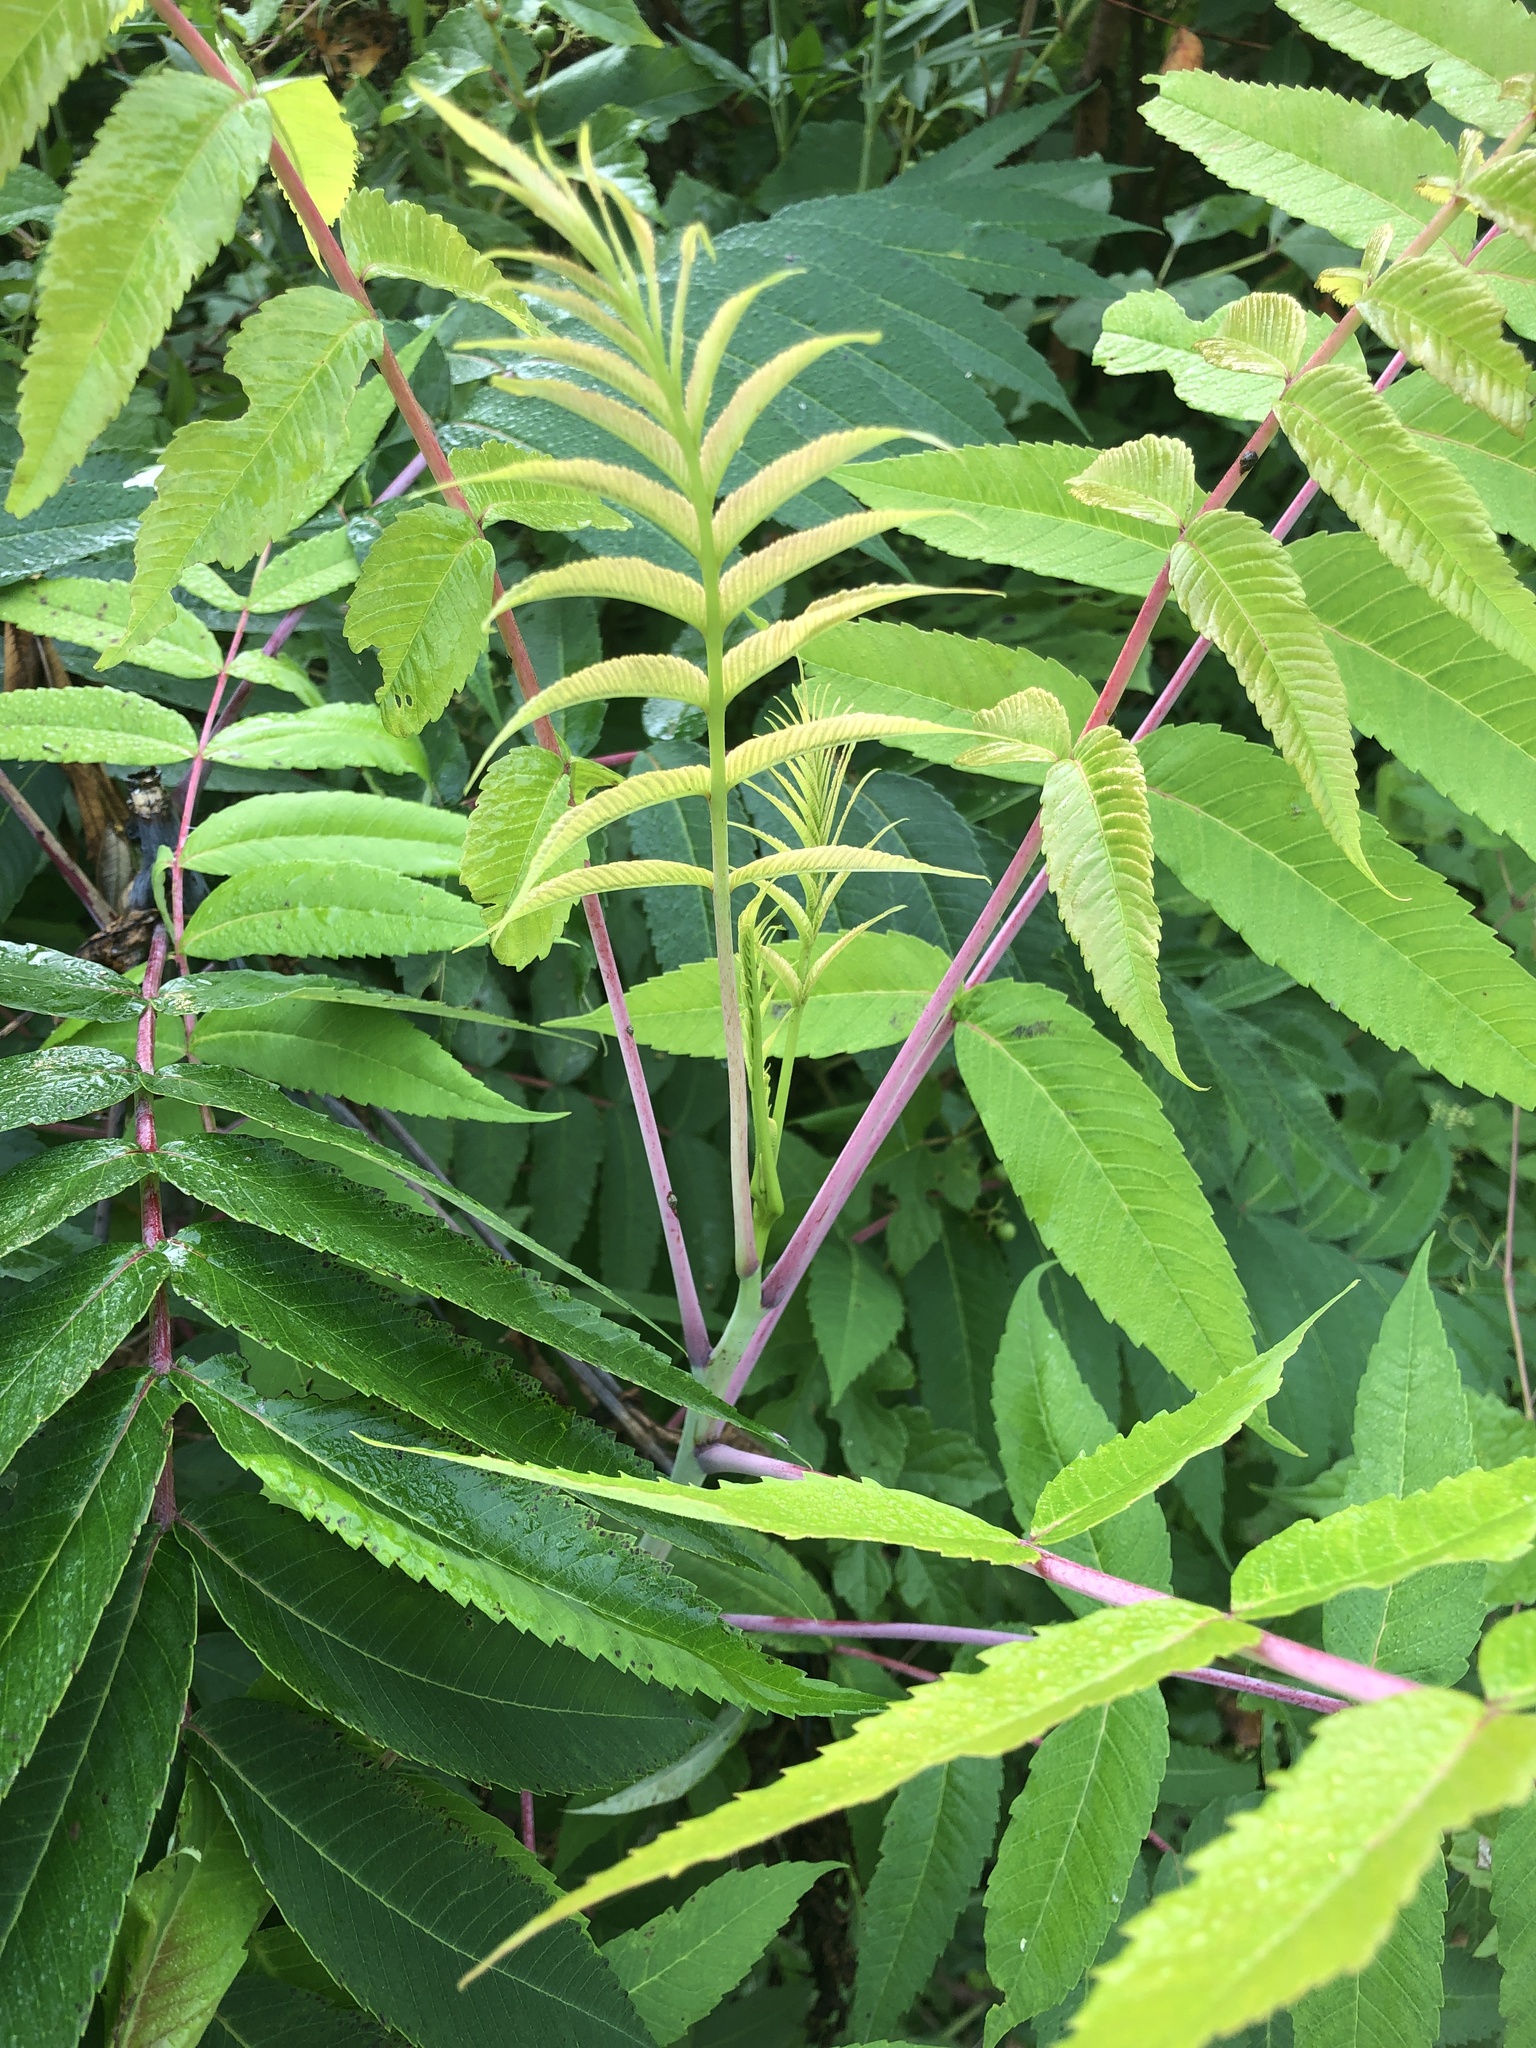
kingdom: Plantae
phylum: Tracheophyta
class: Magnoliopsida
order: Sapindales
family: Anacardiaceae
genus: Rhus
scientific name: Rhus glabra
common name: Scarlet sumac
